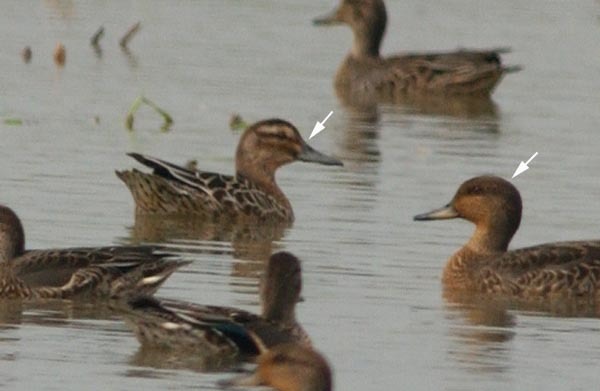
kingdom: Animalia
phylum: Chordata
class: Aves
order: Anseriformes
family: Anatidae
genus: Spatula
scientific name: Spatula querquedula
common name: Garganey
